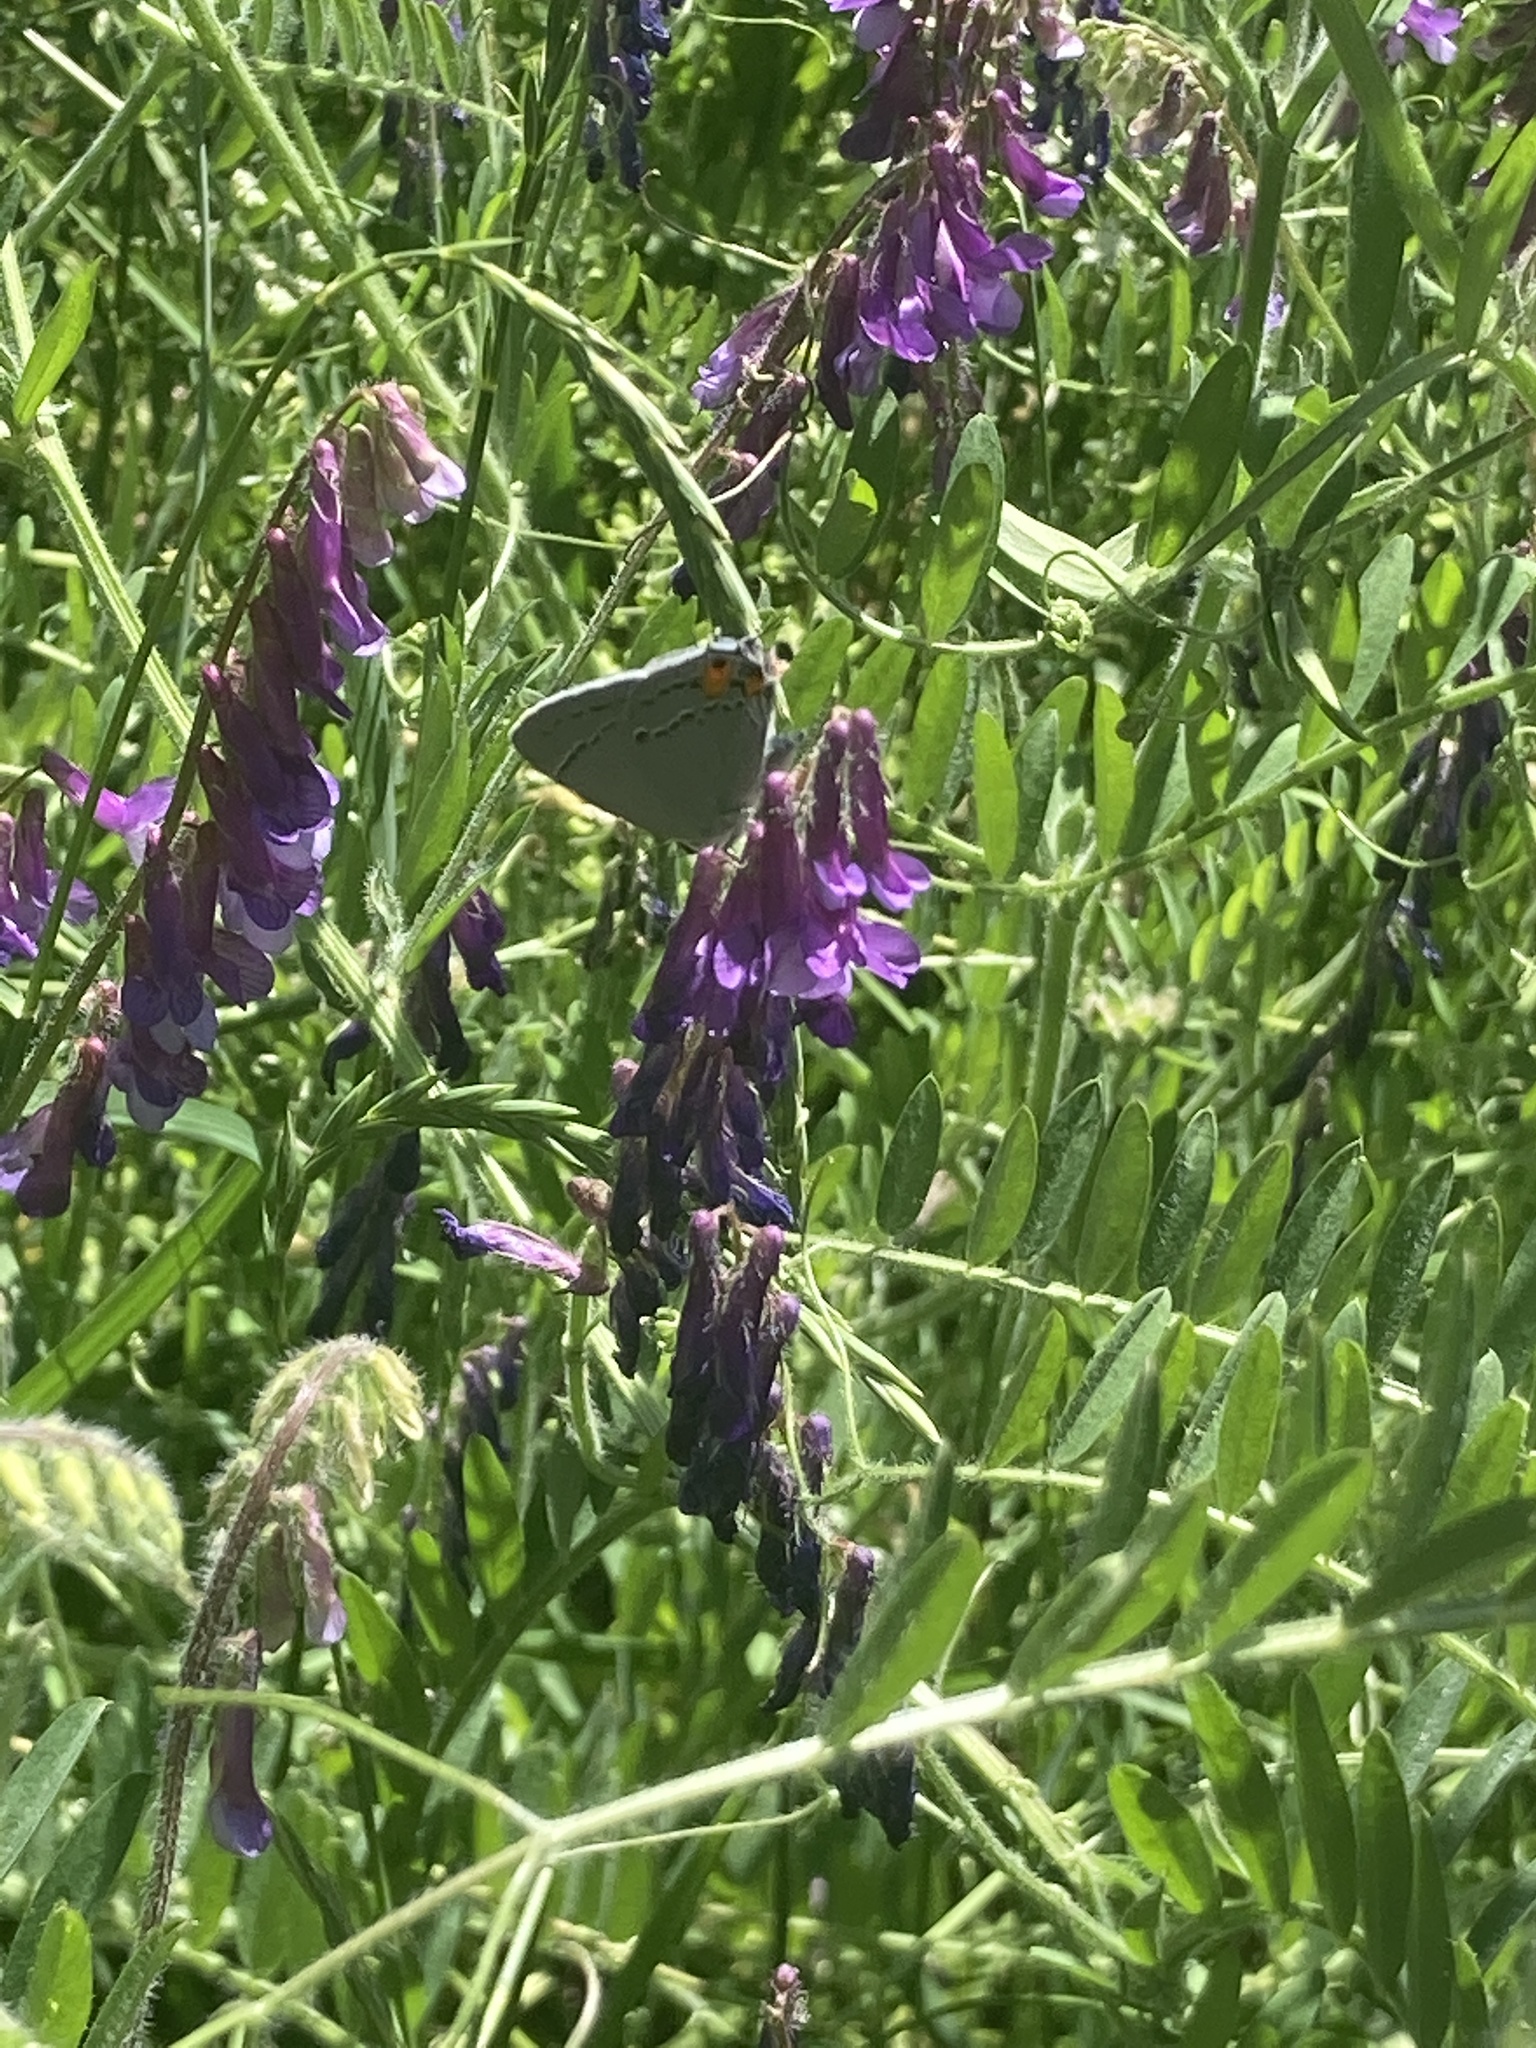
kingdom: Animalia
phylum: Arthropoda
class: Insecta
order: Lepidoptera
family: Lycaenidae
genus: Strymon
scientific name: Strymon melinus
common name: Gray hairstreak
